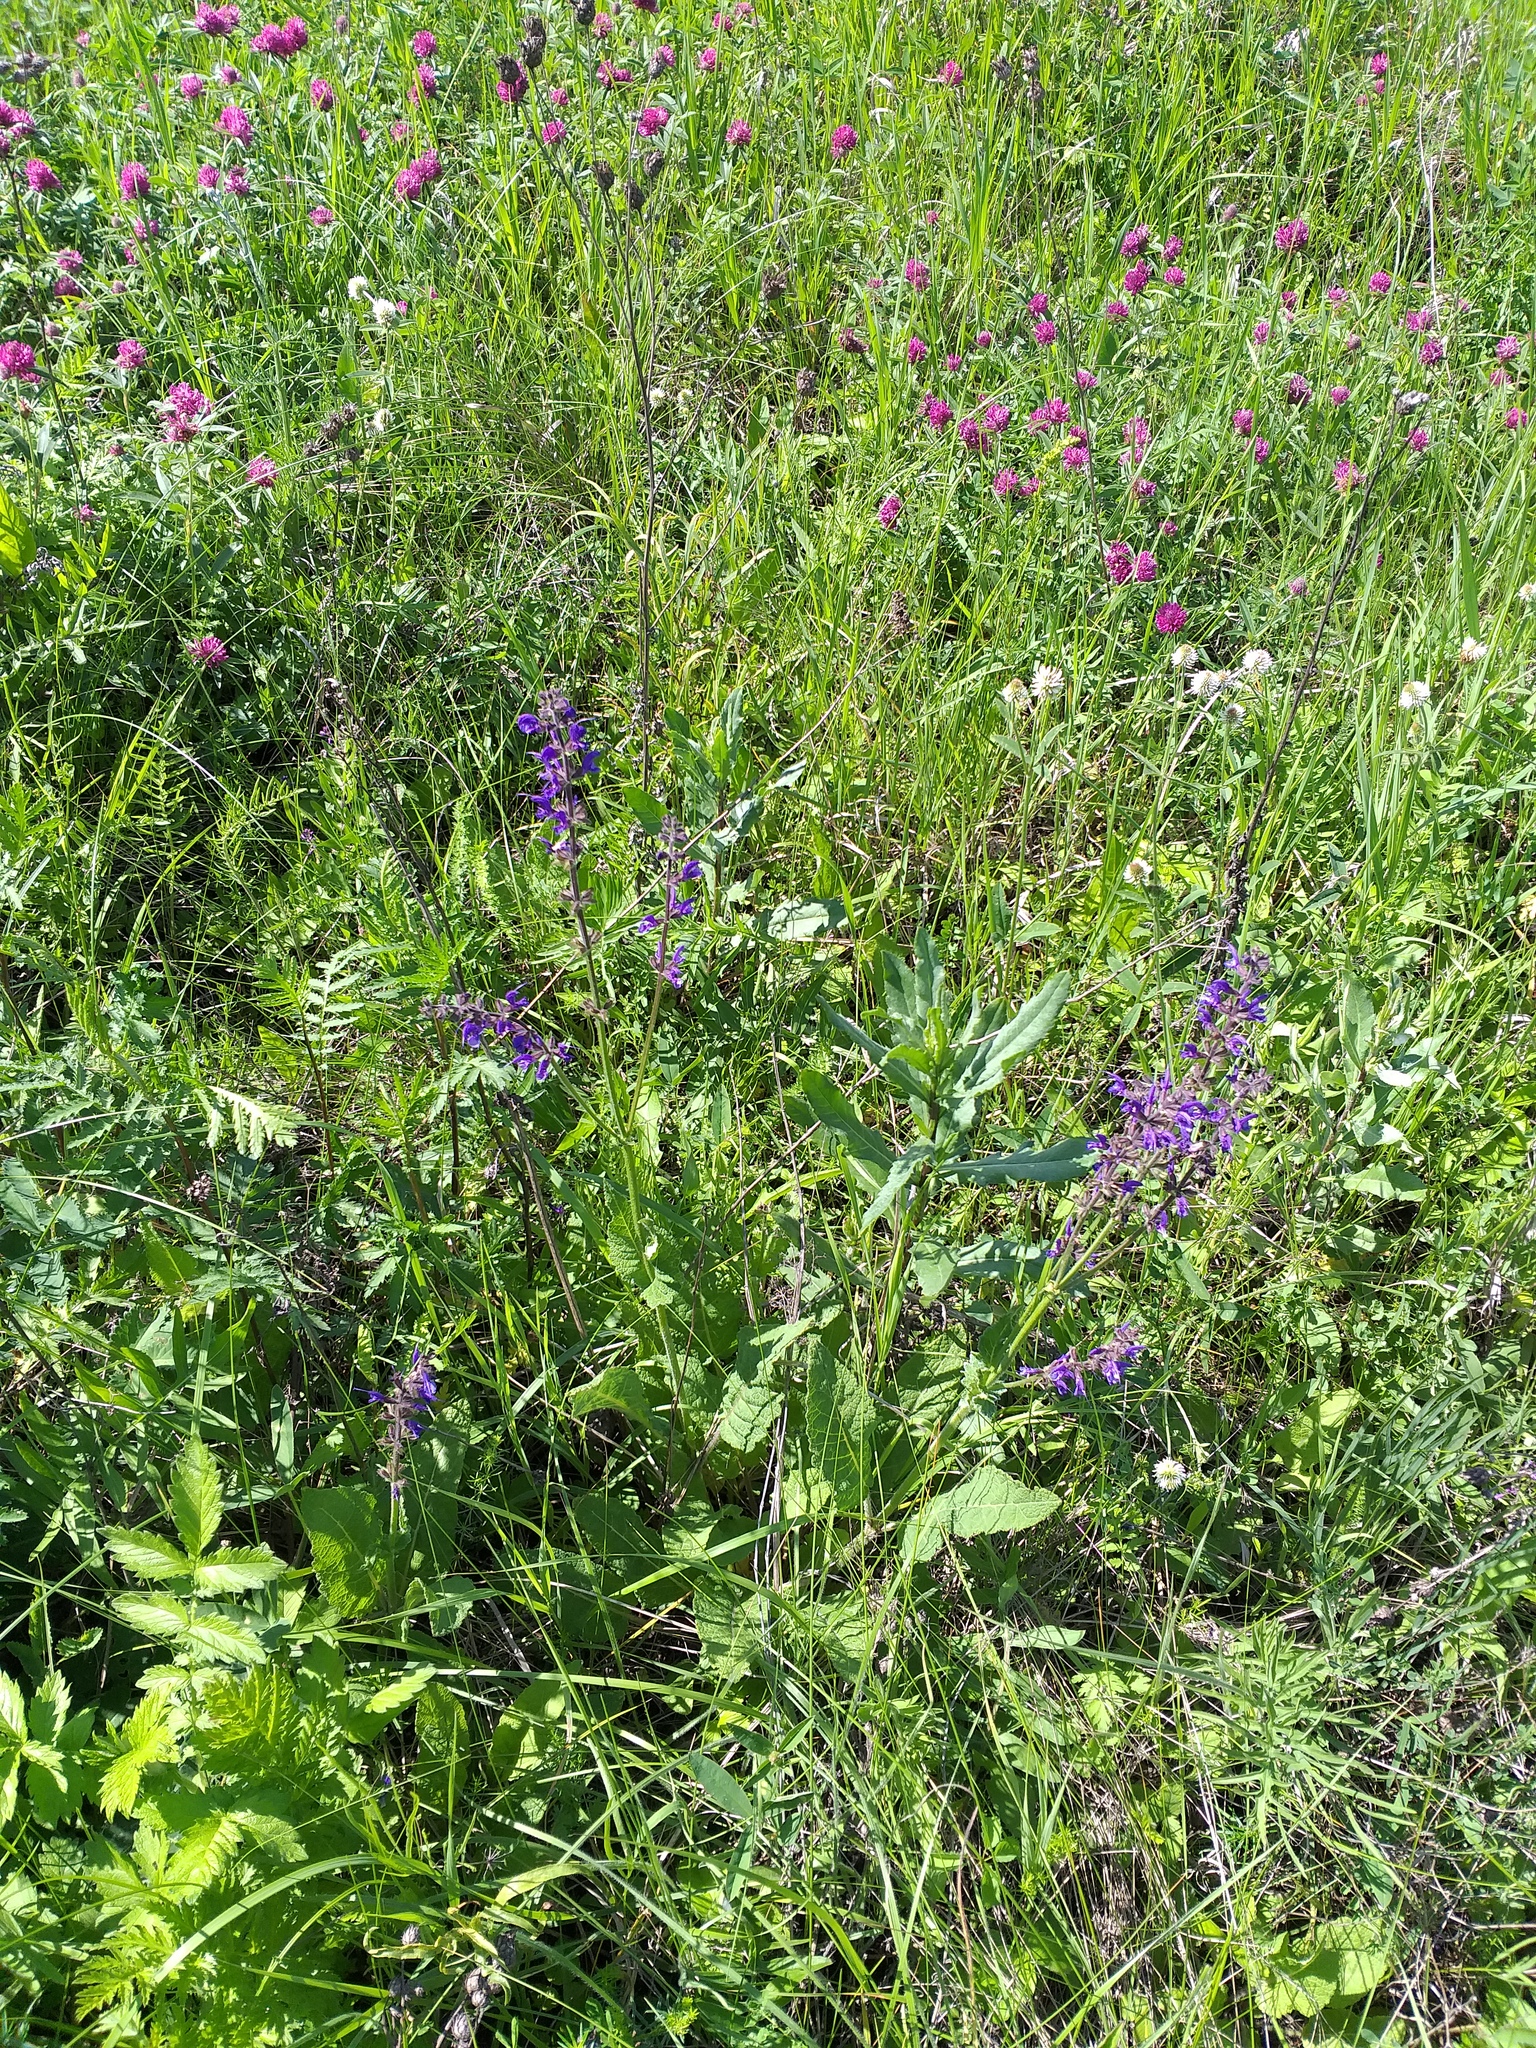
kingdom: Plantae
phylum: Tracheophyta
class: Magnoliopsida
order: Lamiales
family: Lamiaceae
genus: Salvia
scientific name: Salvia pratensis
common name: Meadow sage
